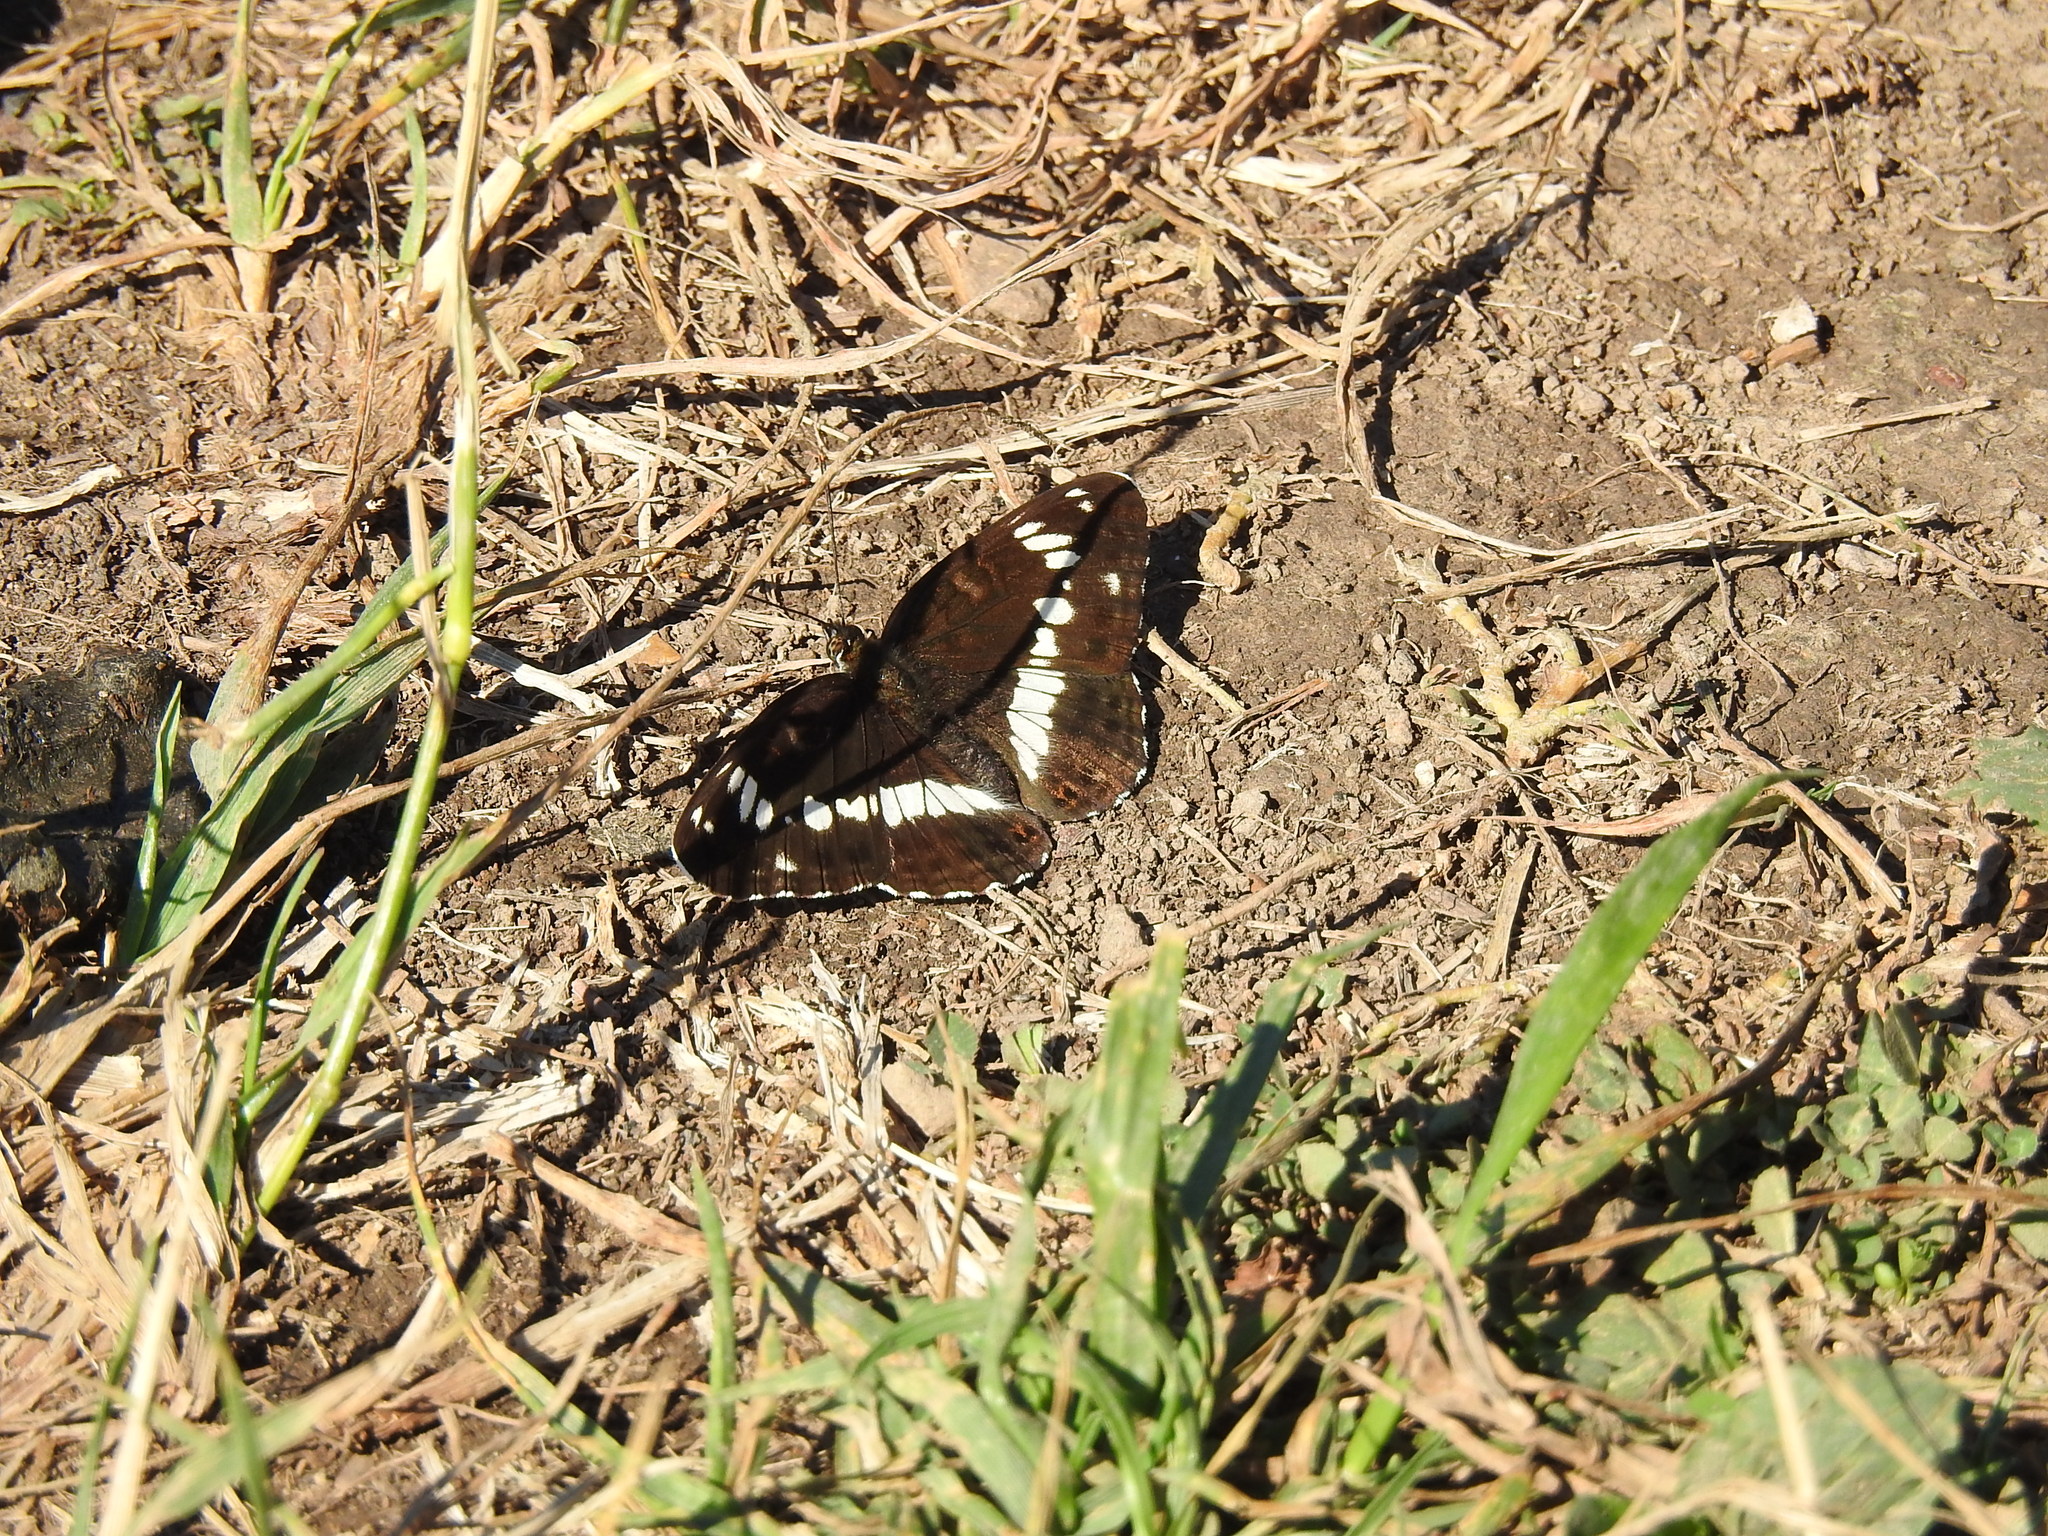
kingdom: Animalia
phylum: Arthropoda
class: Insecta
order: Lepidoptera
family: Nymphalidae
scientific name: Nymphalidae
